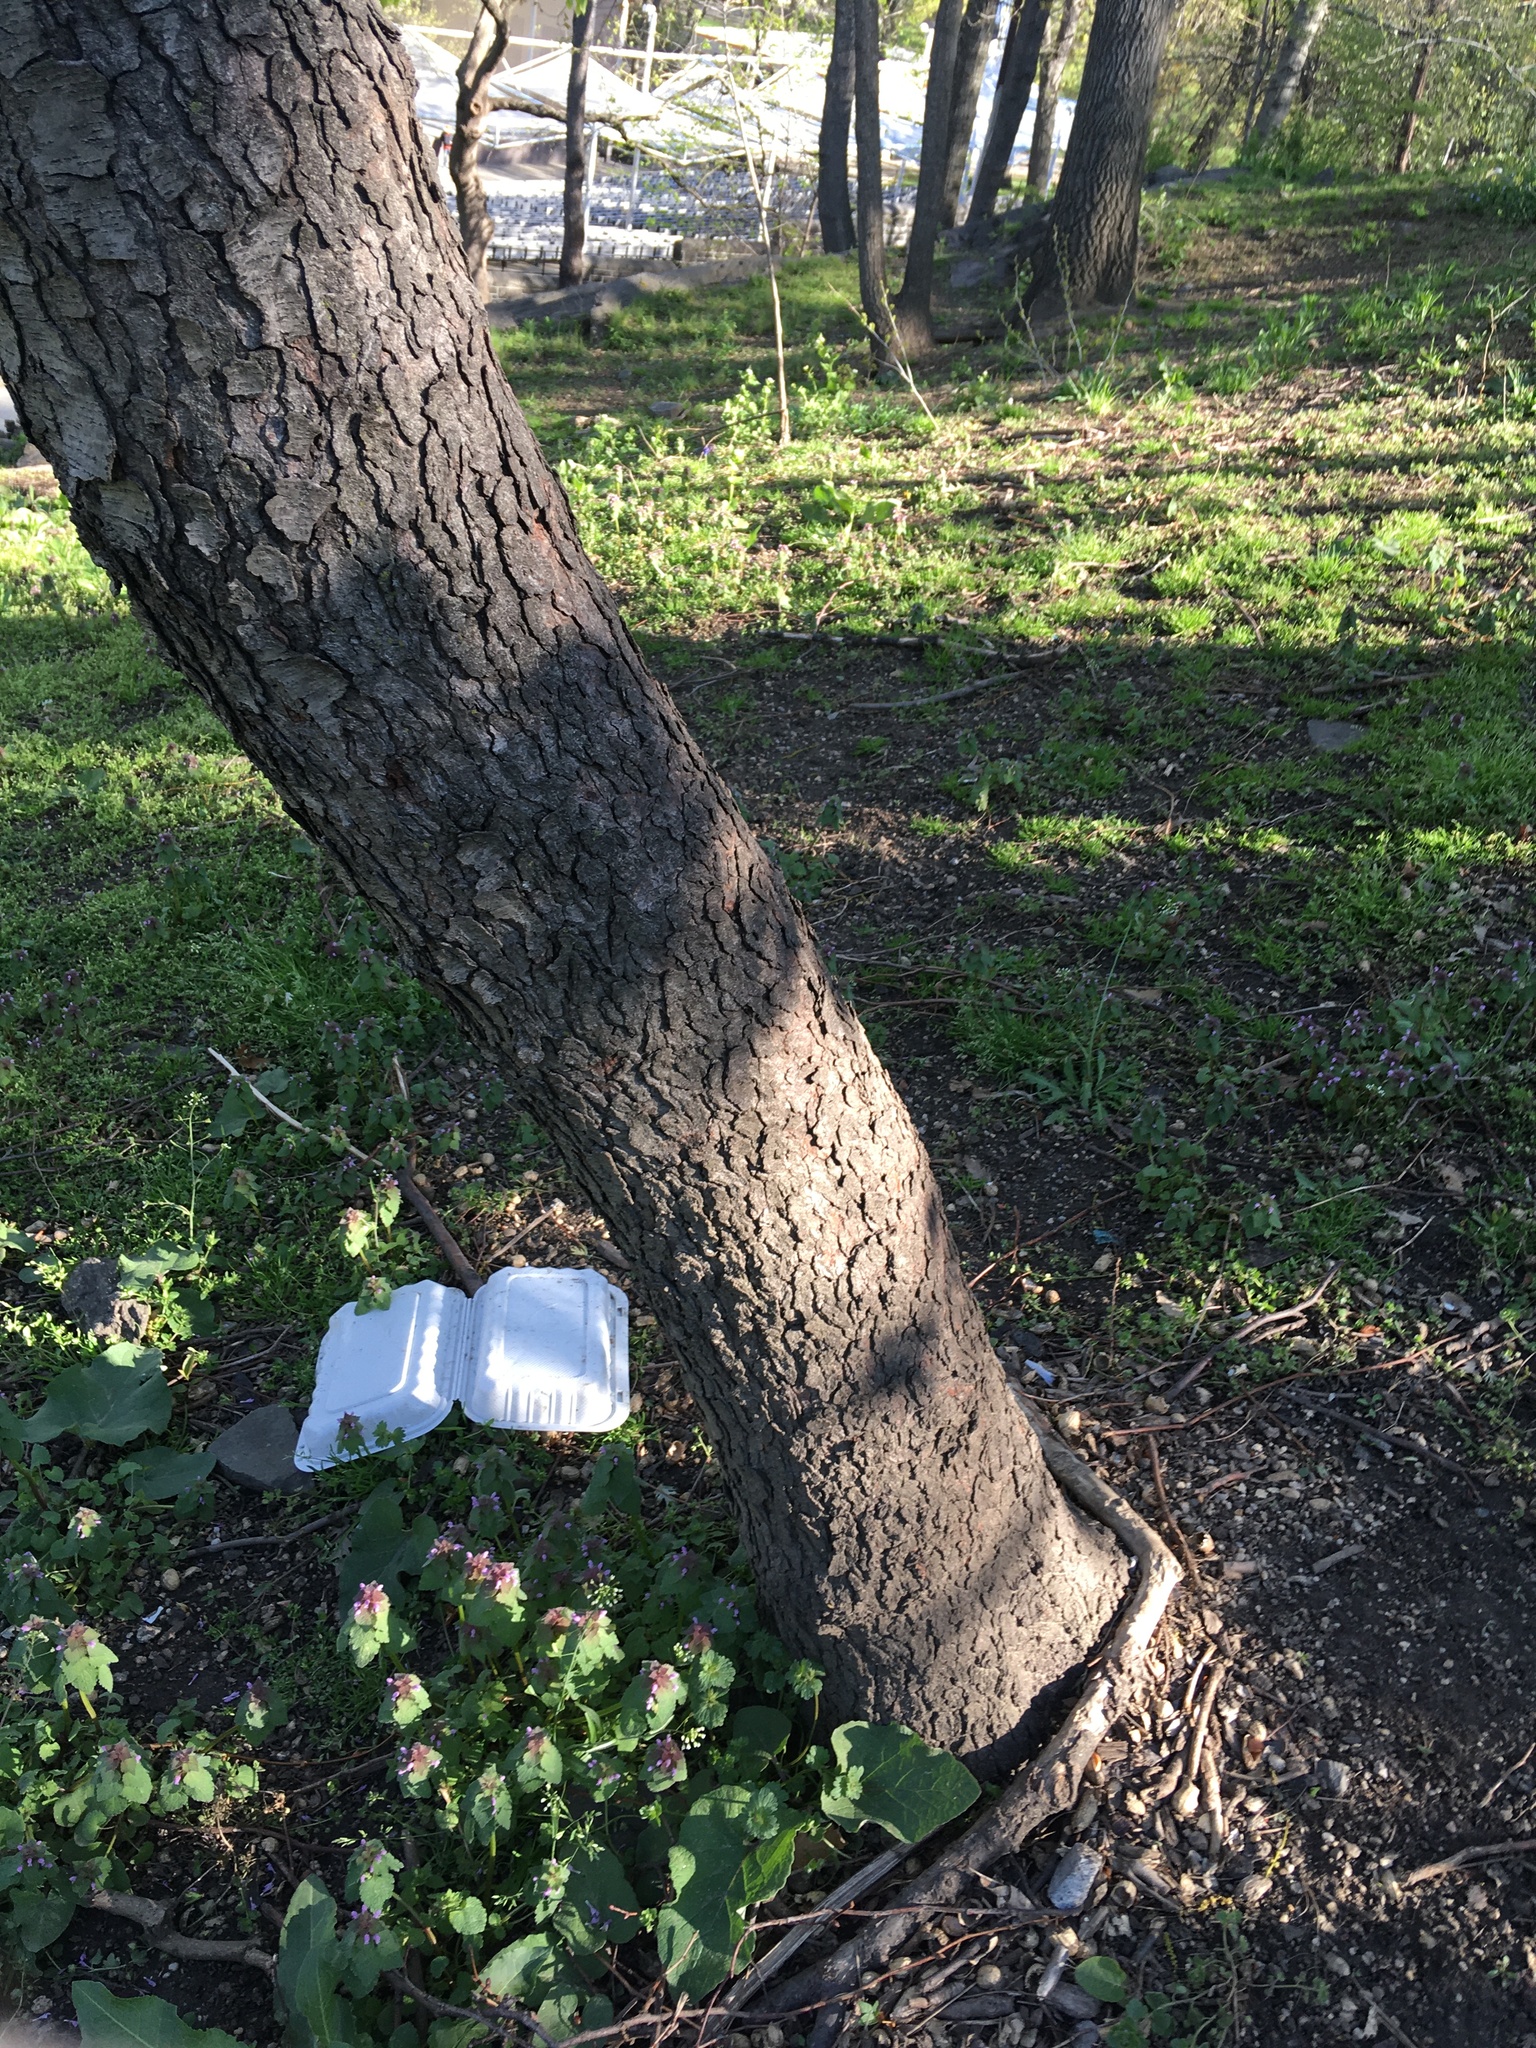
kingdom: Plantae
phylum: Tracheophyta
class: Magnoliopsida
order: Rosales
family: Rosaceae
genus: Prunus
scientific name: Prunus serotina
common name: Black cherry
